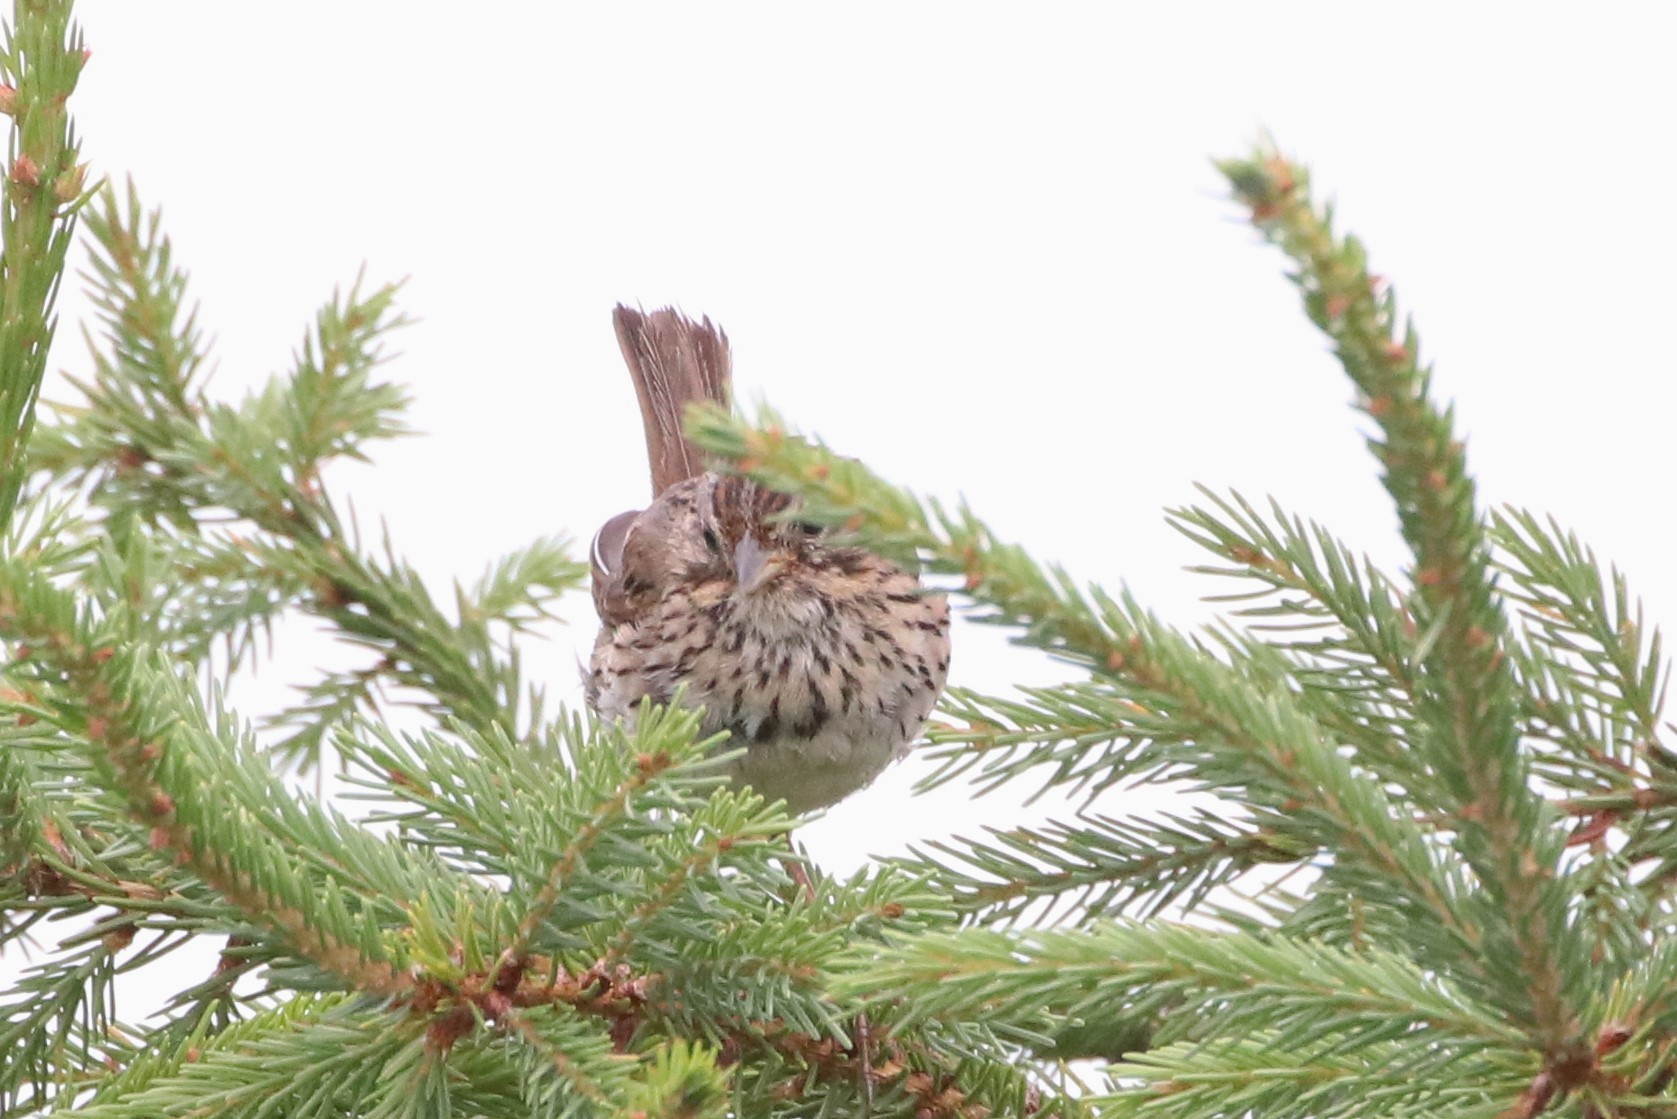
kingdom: Animalia
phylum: Chordata
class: Aves
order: Passeriformes
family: Passerellidae
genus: Melospiza
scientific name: Melospiza lincolnii
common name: Lincoln's sparrow
